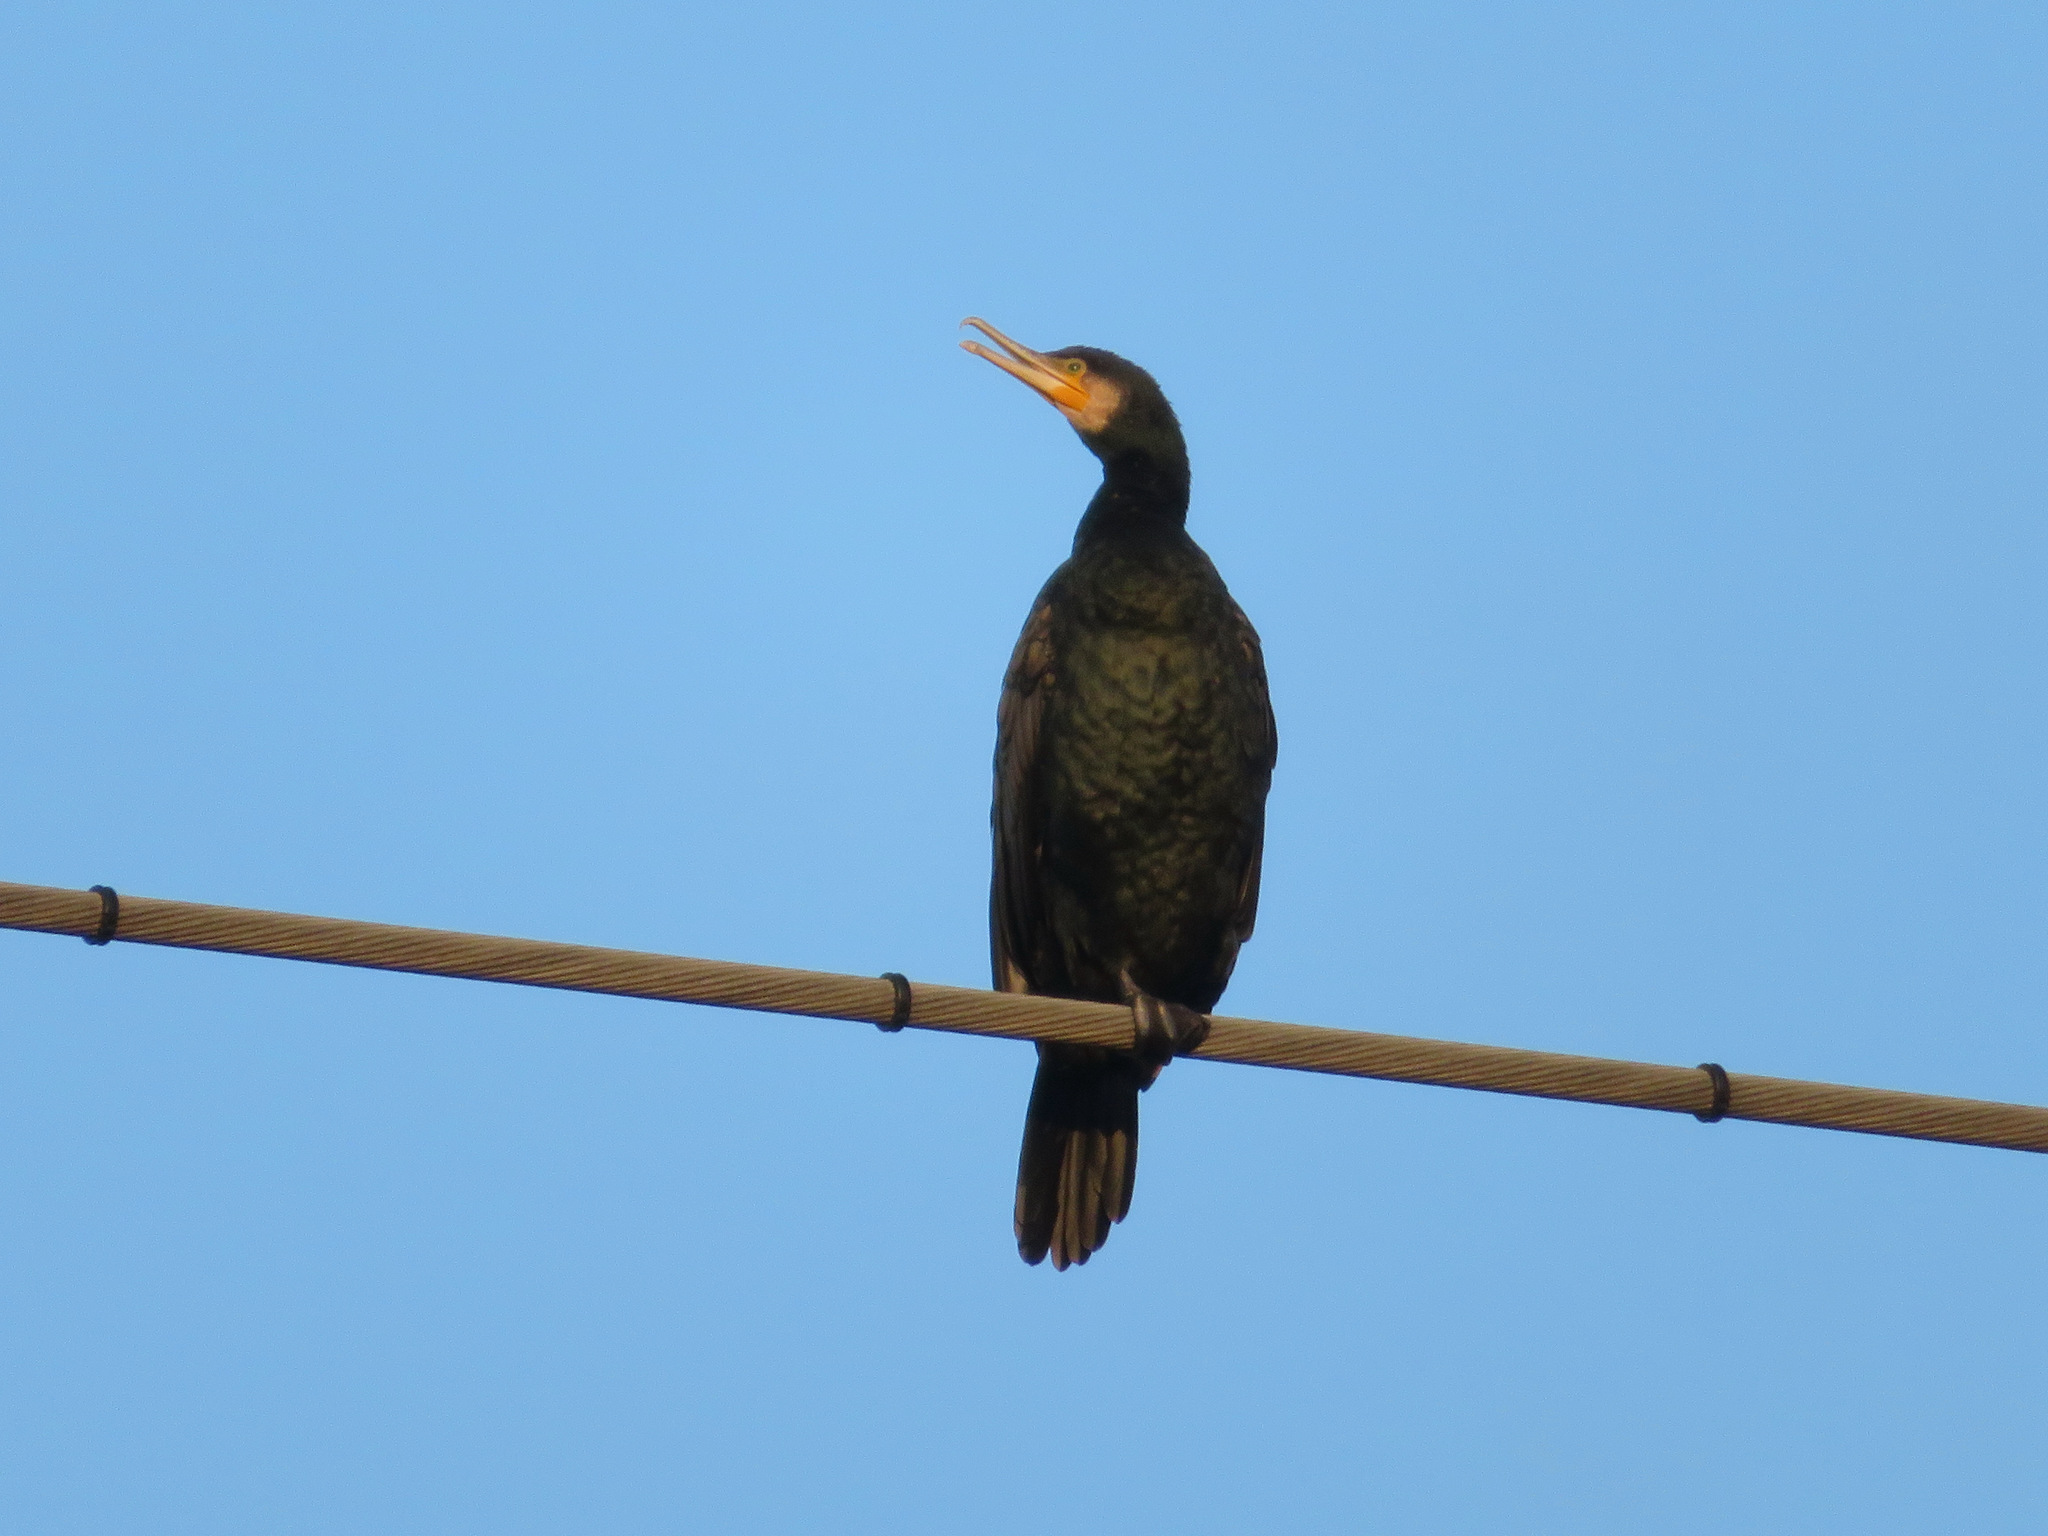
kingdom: Animalia
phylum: Chordata
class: Aves
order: Suliformes
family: Phalacrocoracidae
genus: Phalacrocorax
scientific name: Phalacrocorax carbo
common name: Great cormorant
